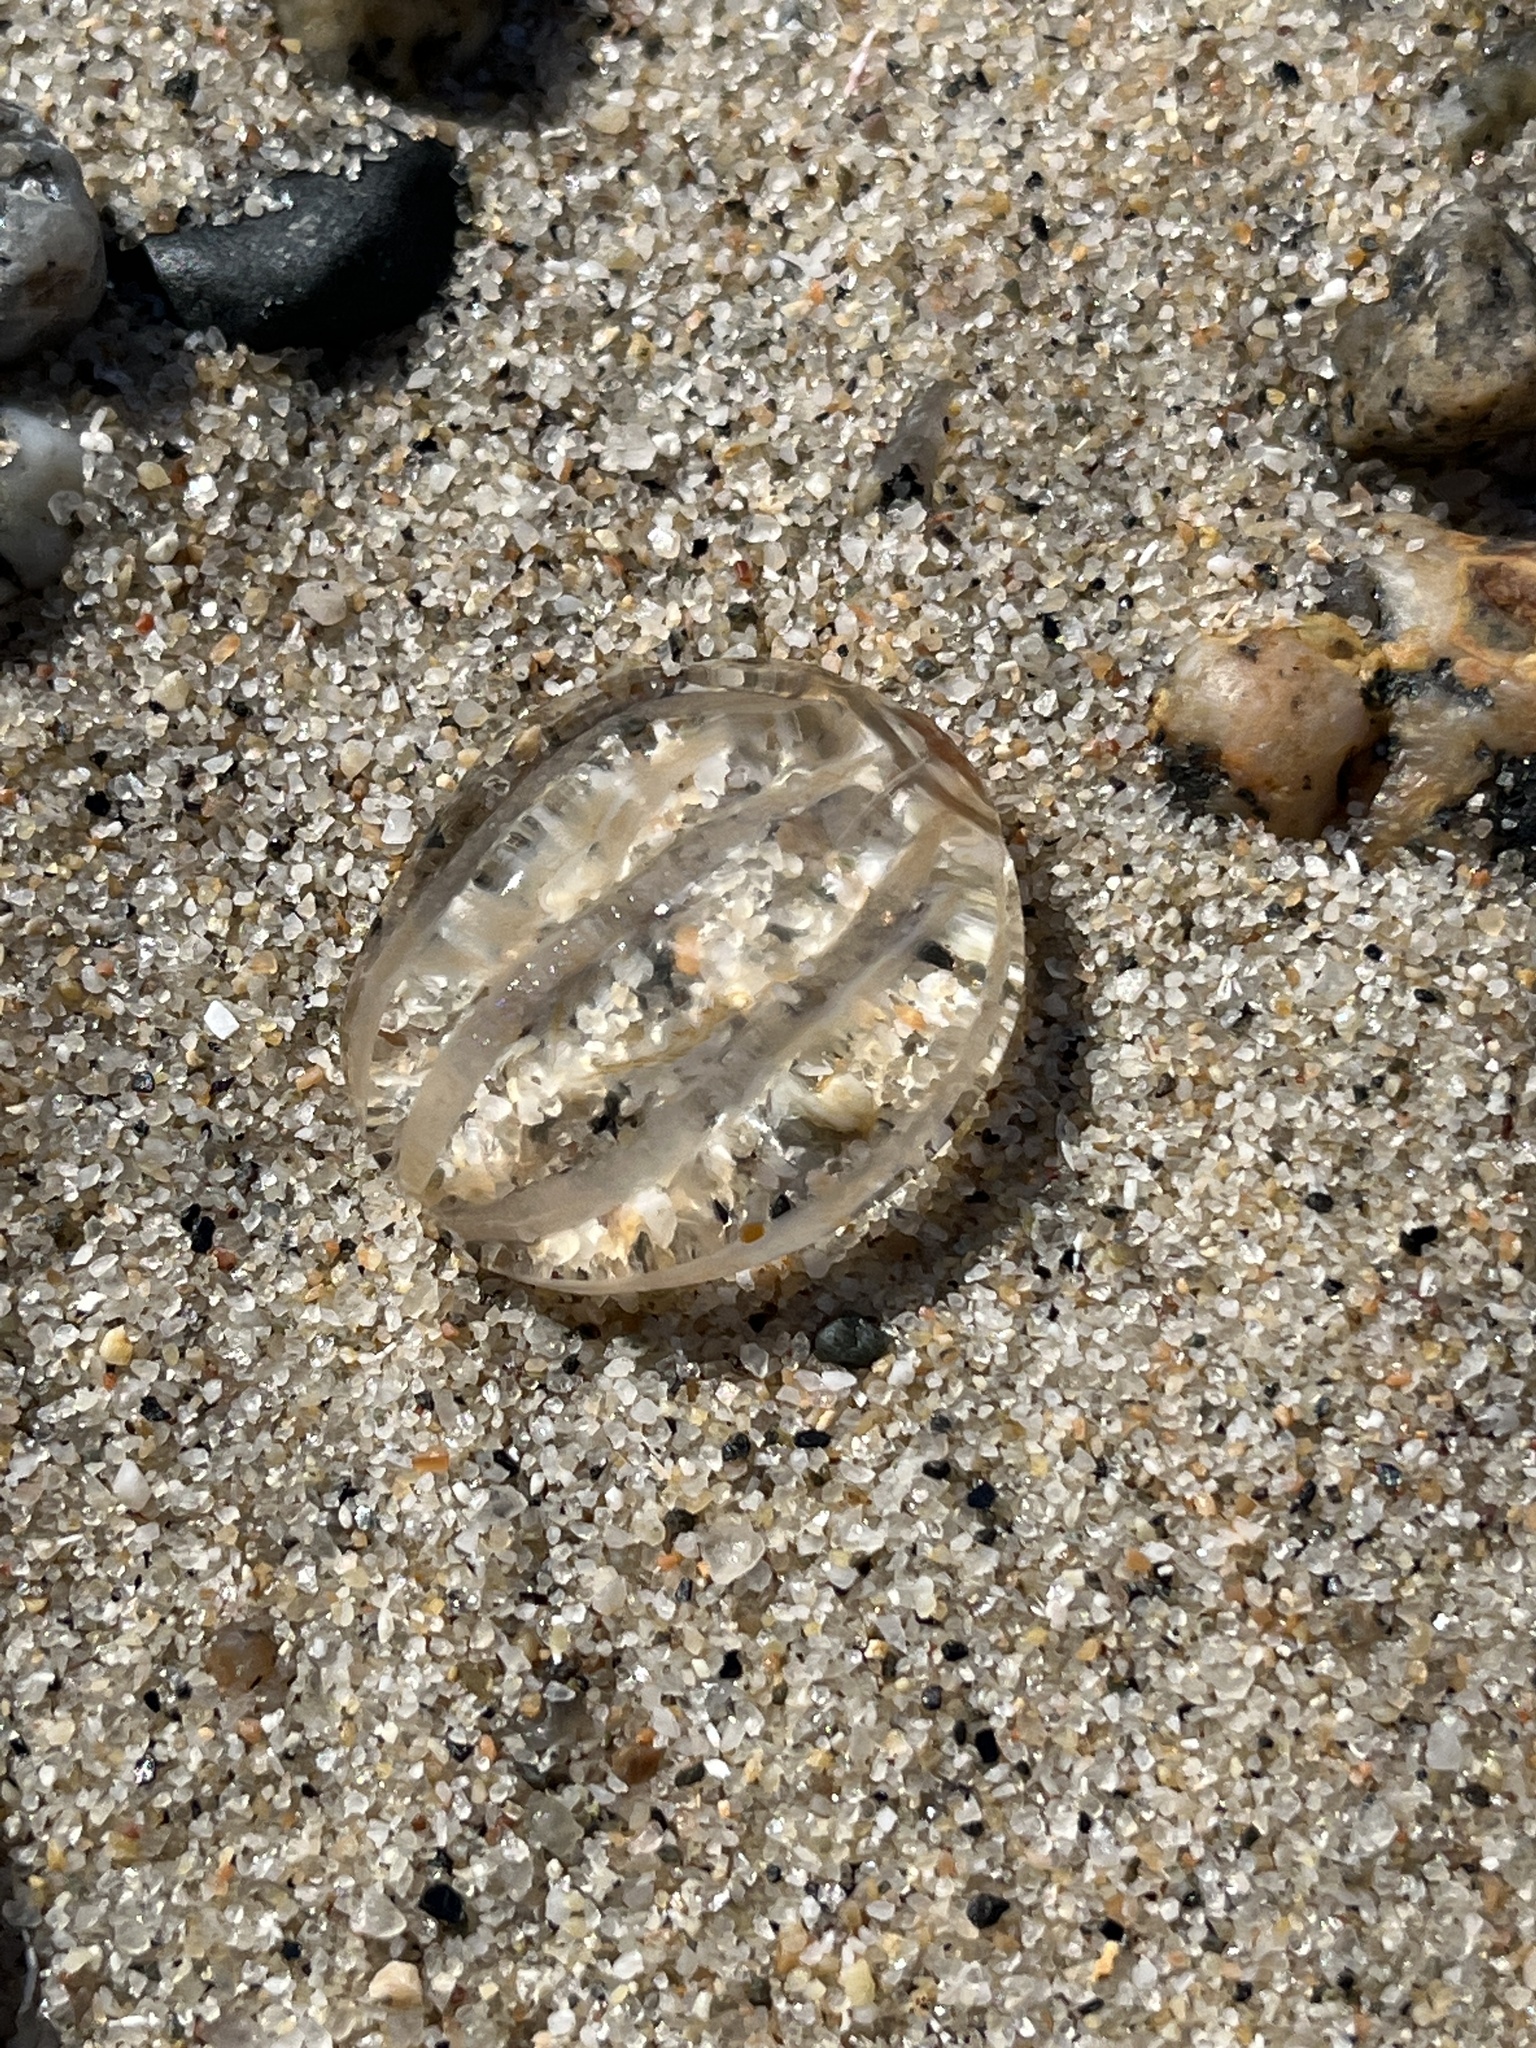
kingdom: Animalia
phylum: Ctenophora
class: Tentaculata
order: Cydippida
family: Pleurobrachiidae
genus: Pleurobrachia
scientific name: Pleurobrachia pileus
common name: Sea gooseberry
